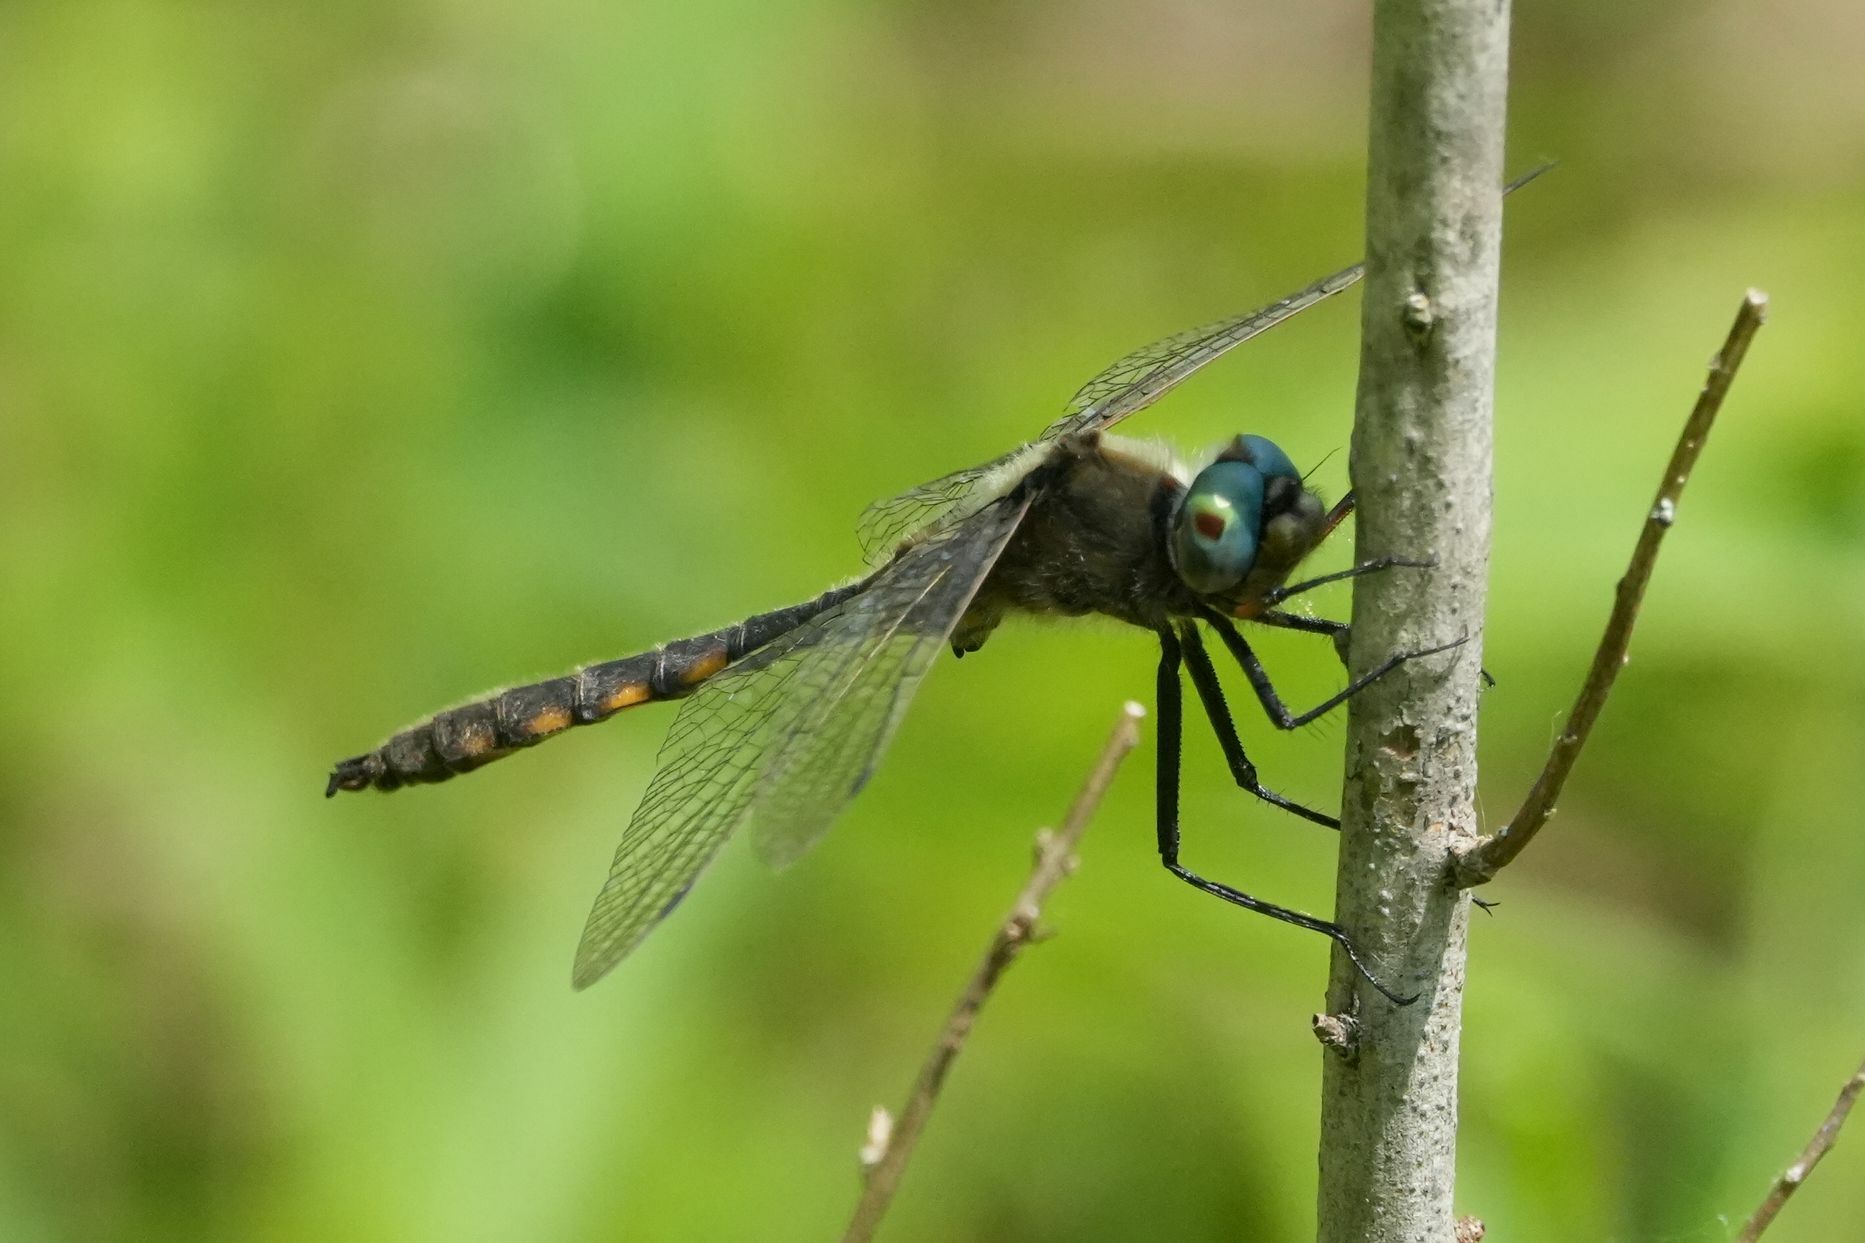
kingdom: Animalia
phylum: Arthropoda
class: Insecta
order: Odonata
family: Corduliidae
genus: Epitheca
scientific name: Epitheca canis
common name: Beaverpond baskettail
